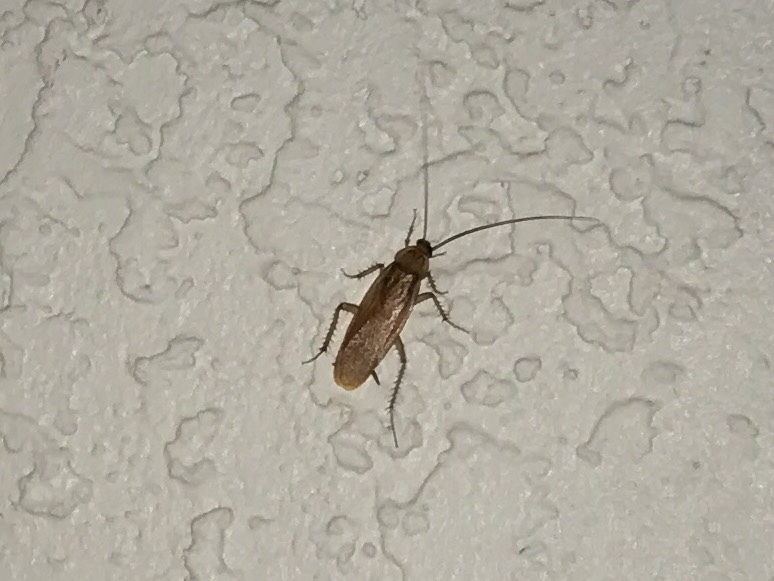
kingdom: Animalia
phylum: Arthropoda
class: Insecta
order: Blattodea
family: Blattidae
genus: Periplaneta
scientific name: Periplaneta lateralis
